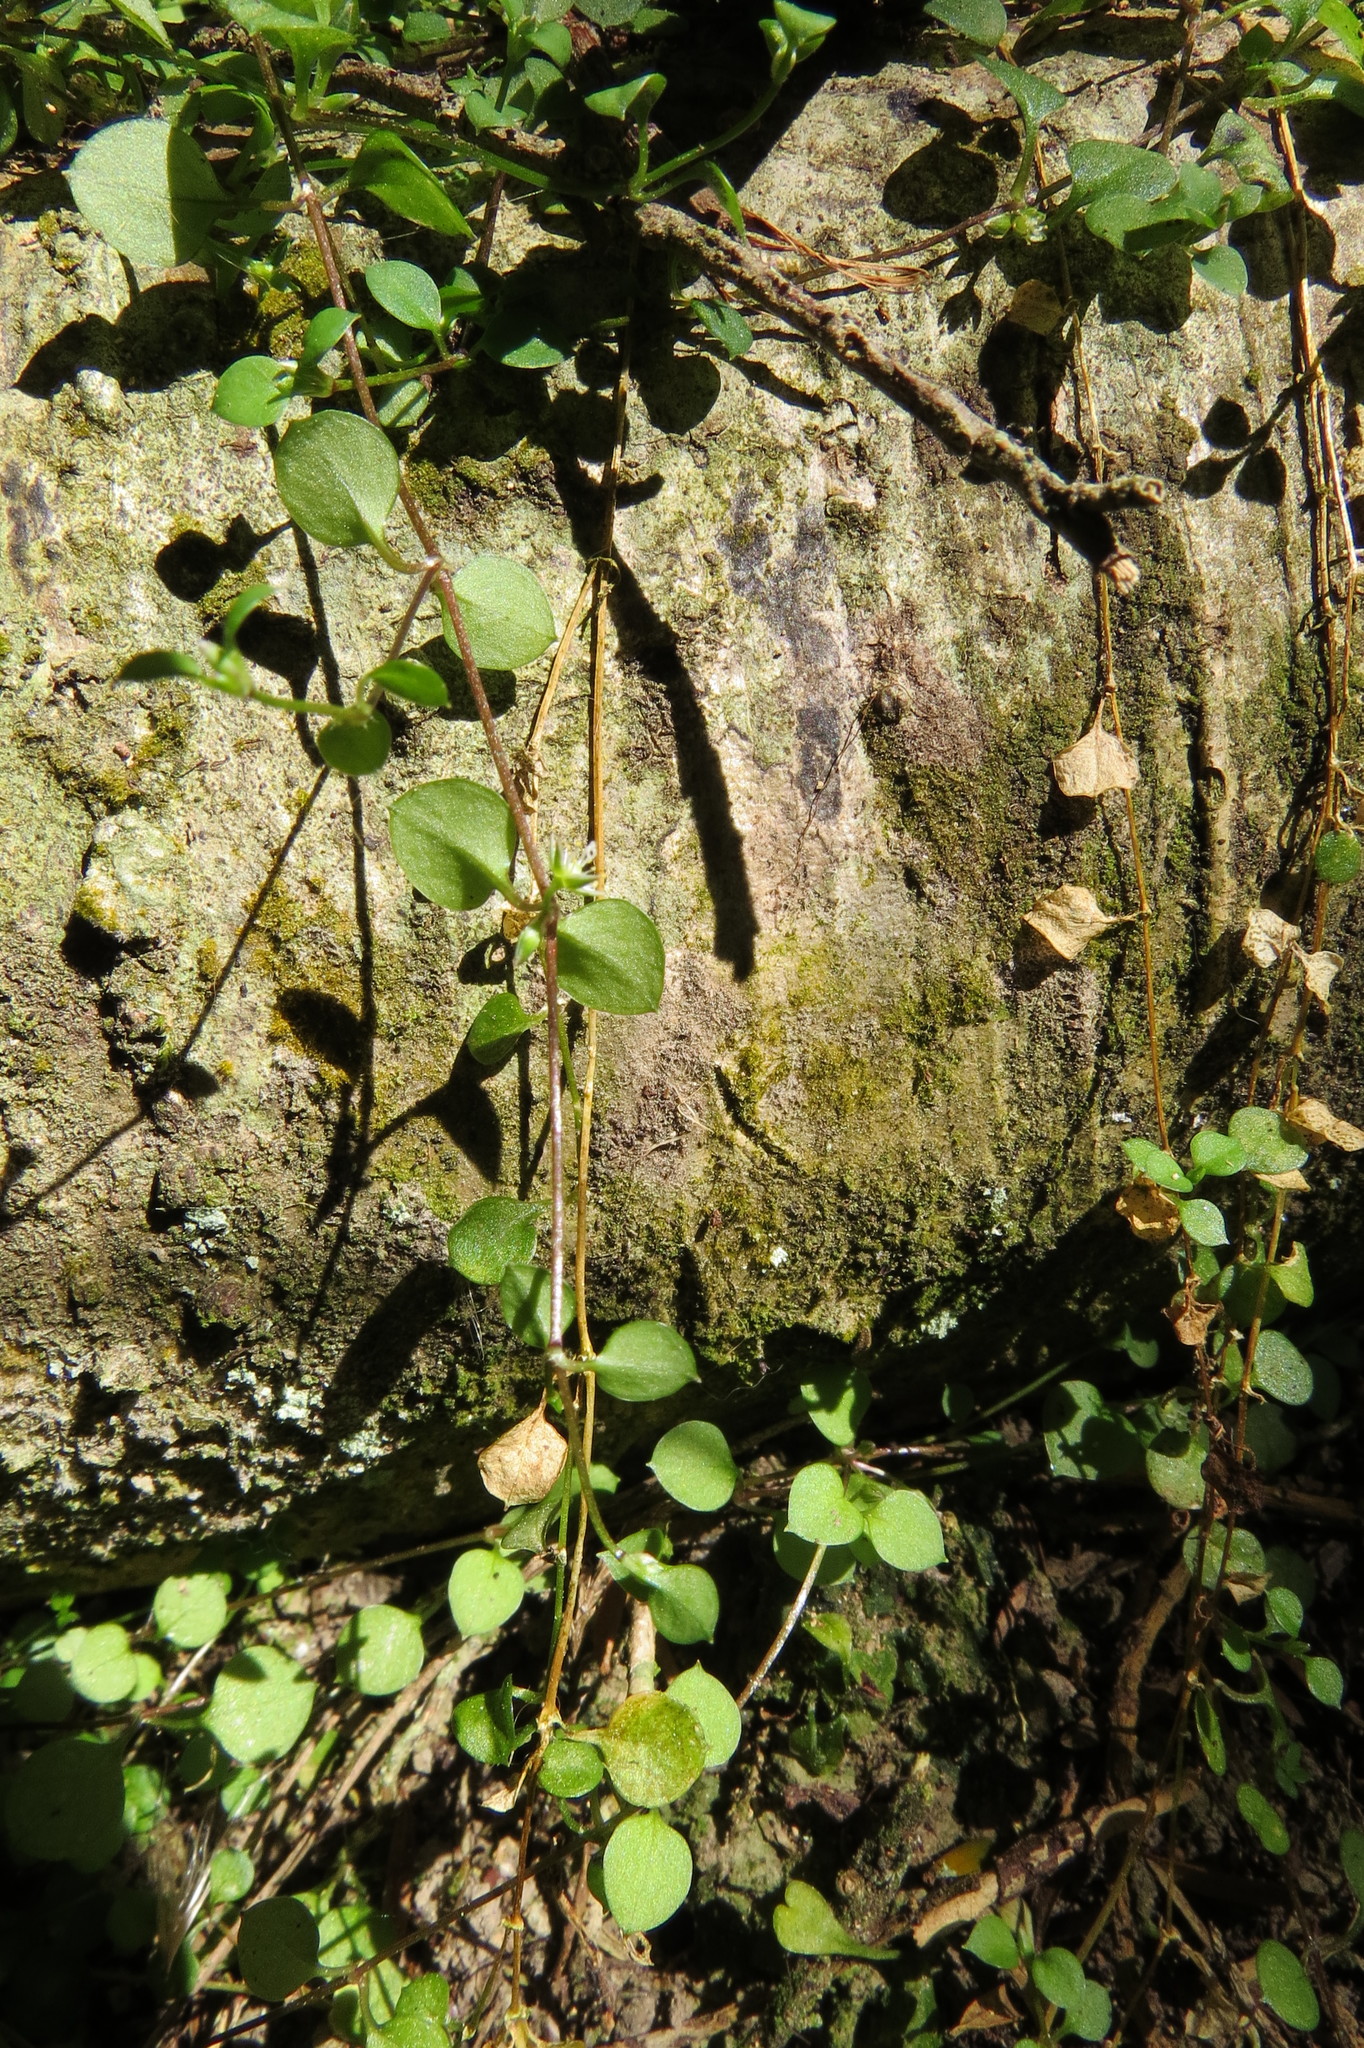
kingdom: Plantae
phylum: Tracheophyta
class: Magnoliopsida
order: Caryophyllales
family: Caryophyllaceae
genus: Stellaria
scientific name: Stellaria parviflora
